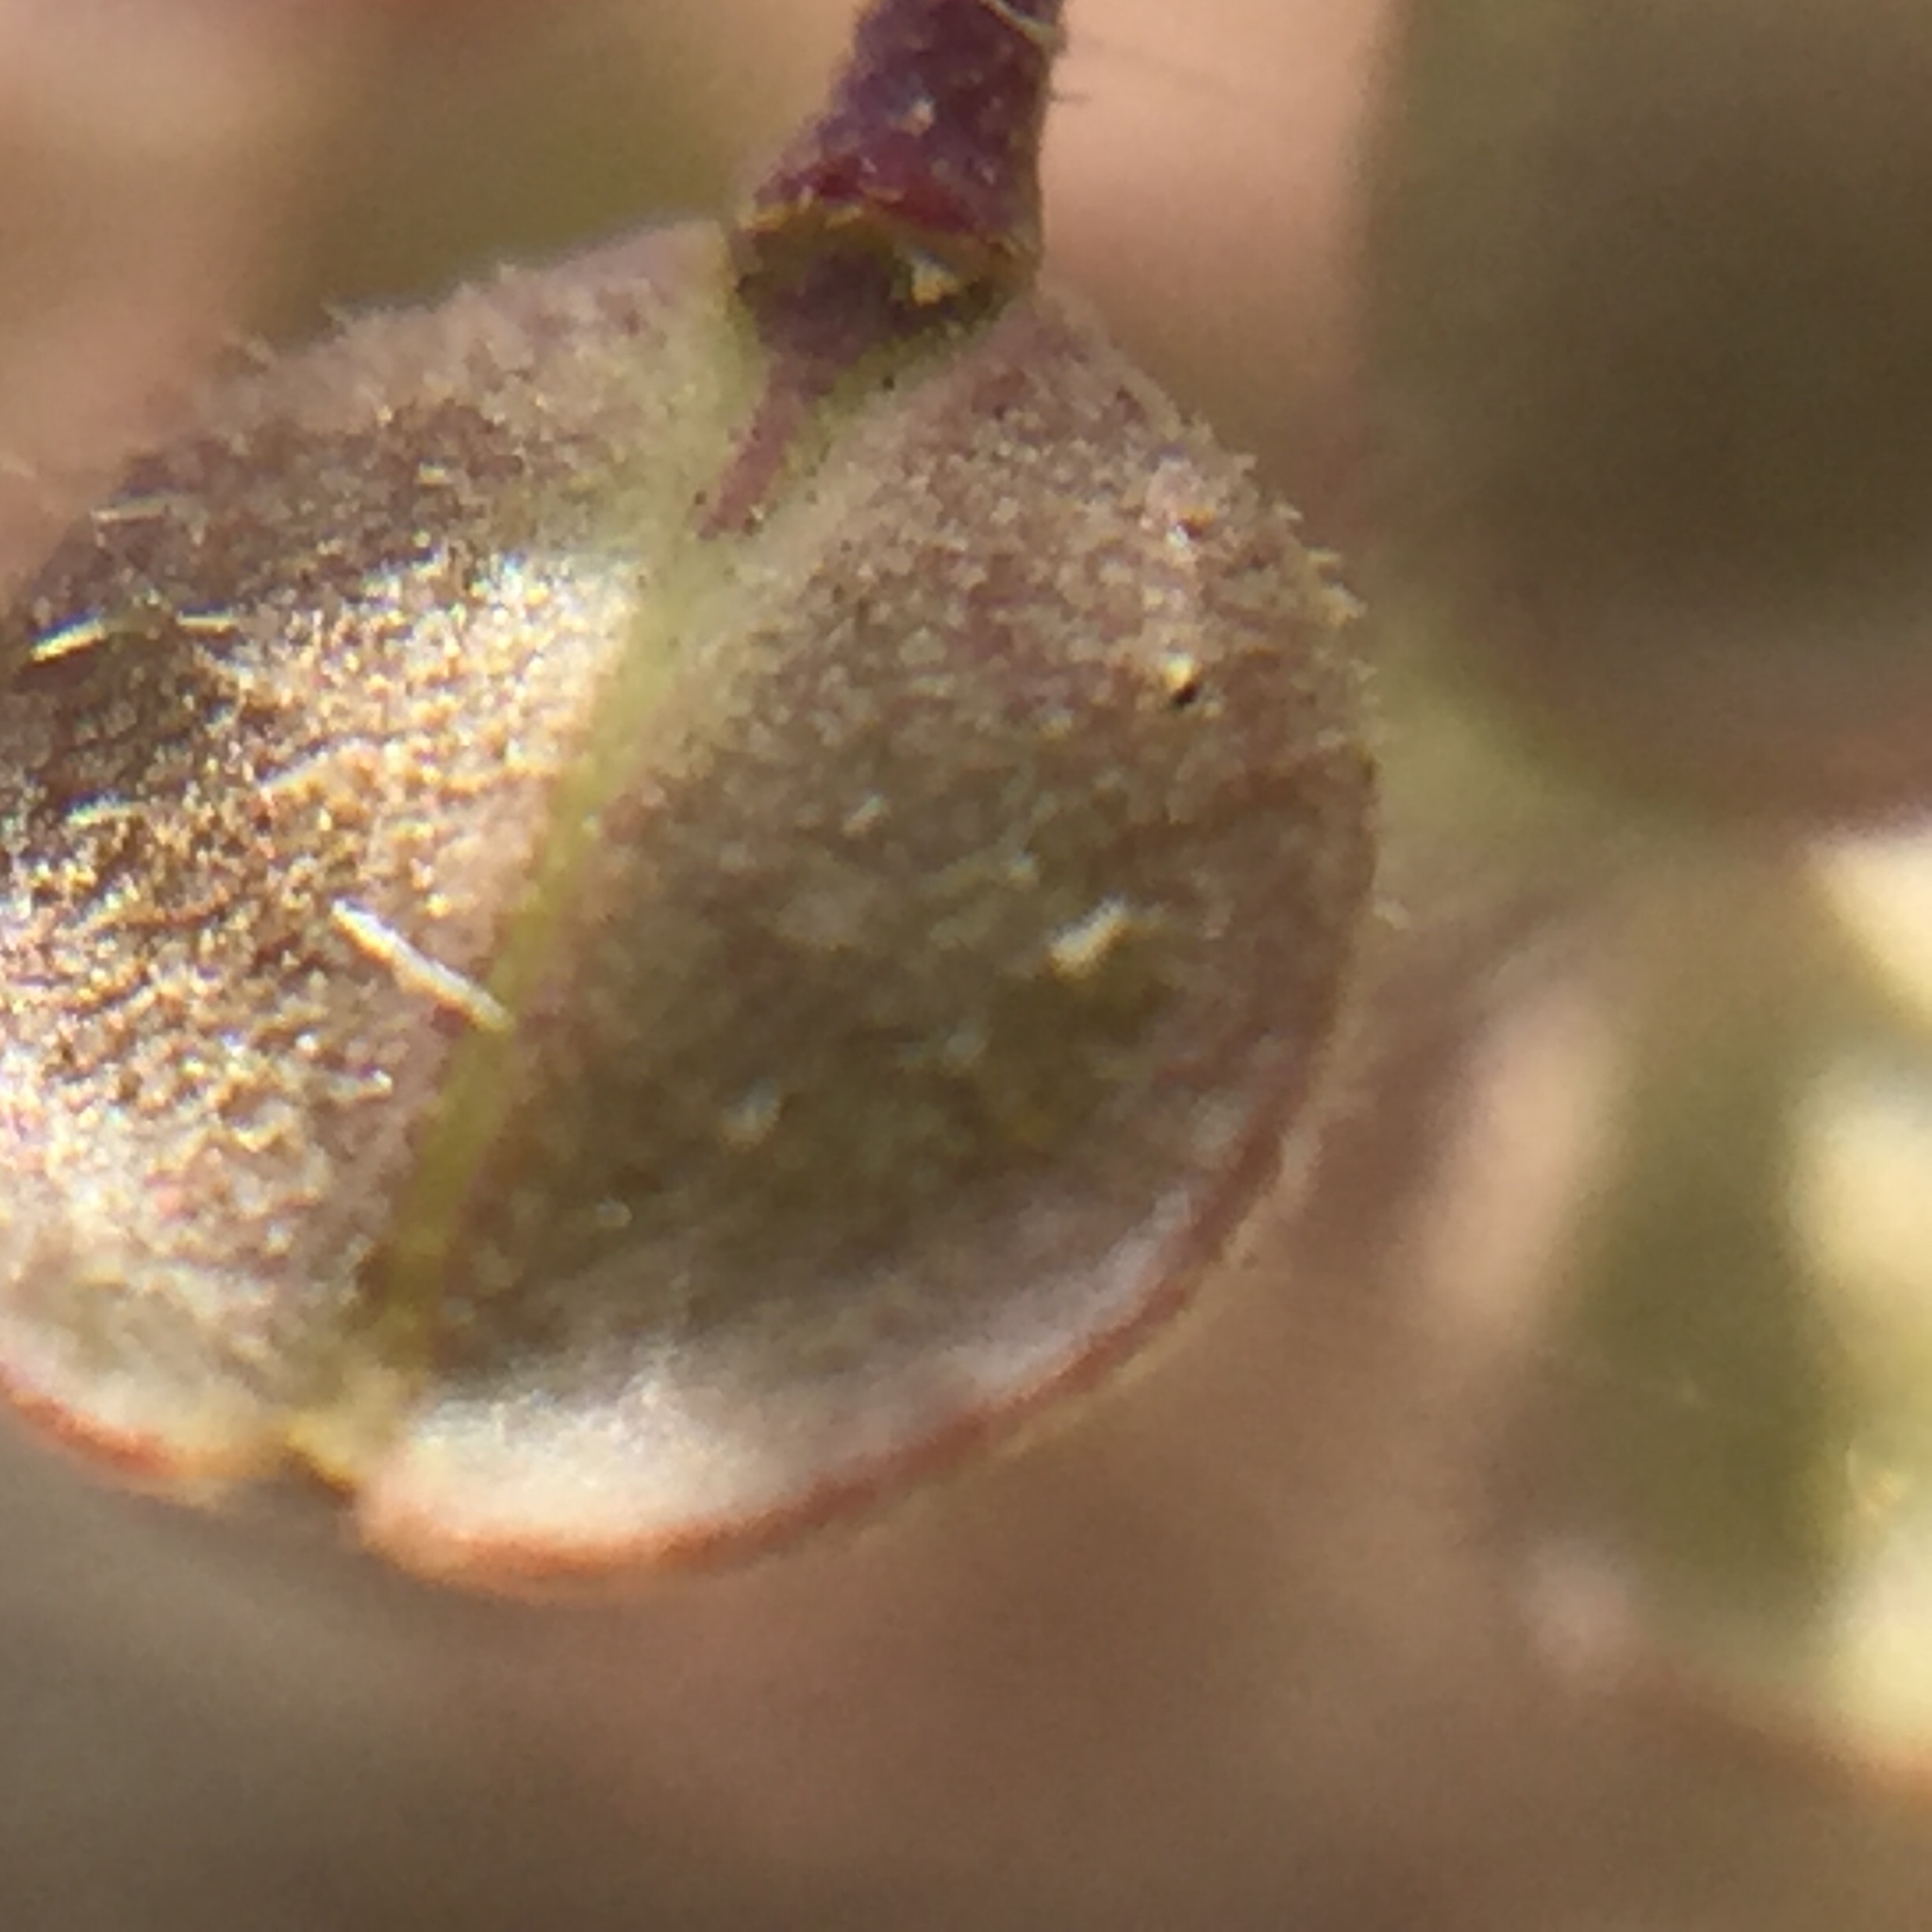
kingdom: Plantae
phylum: Tracheophyta
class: Magnoliopsida
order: Brassicales
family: Brassicaceae
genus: Lepidium
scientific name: Lepidium virginicum
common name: Least pepperwort
